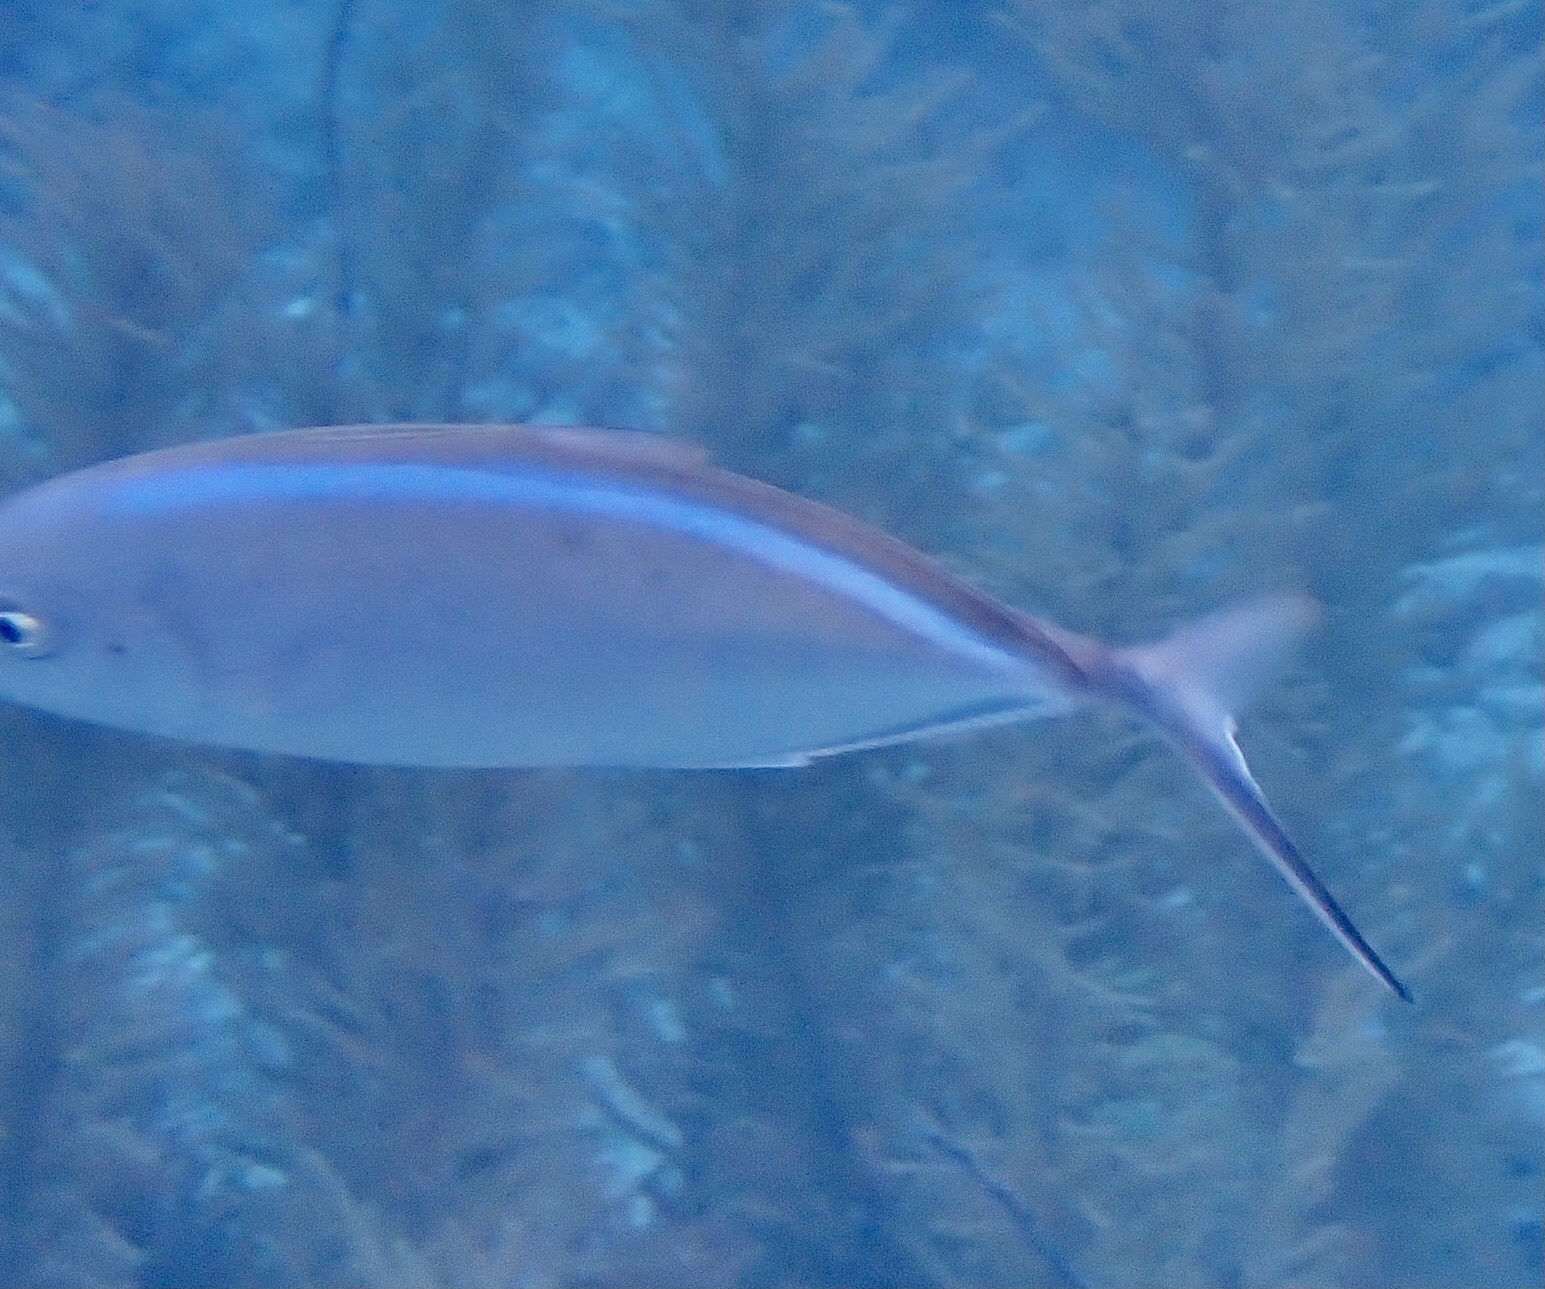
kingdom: Animalia
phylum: Chordata
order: Perciformes
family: Carangidae
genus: Caranx
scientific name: Caranx ruber
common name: Bar jack
